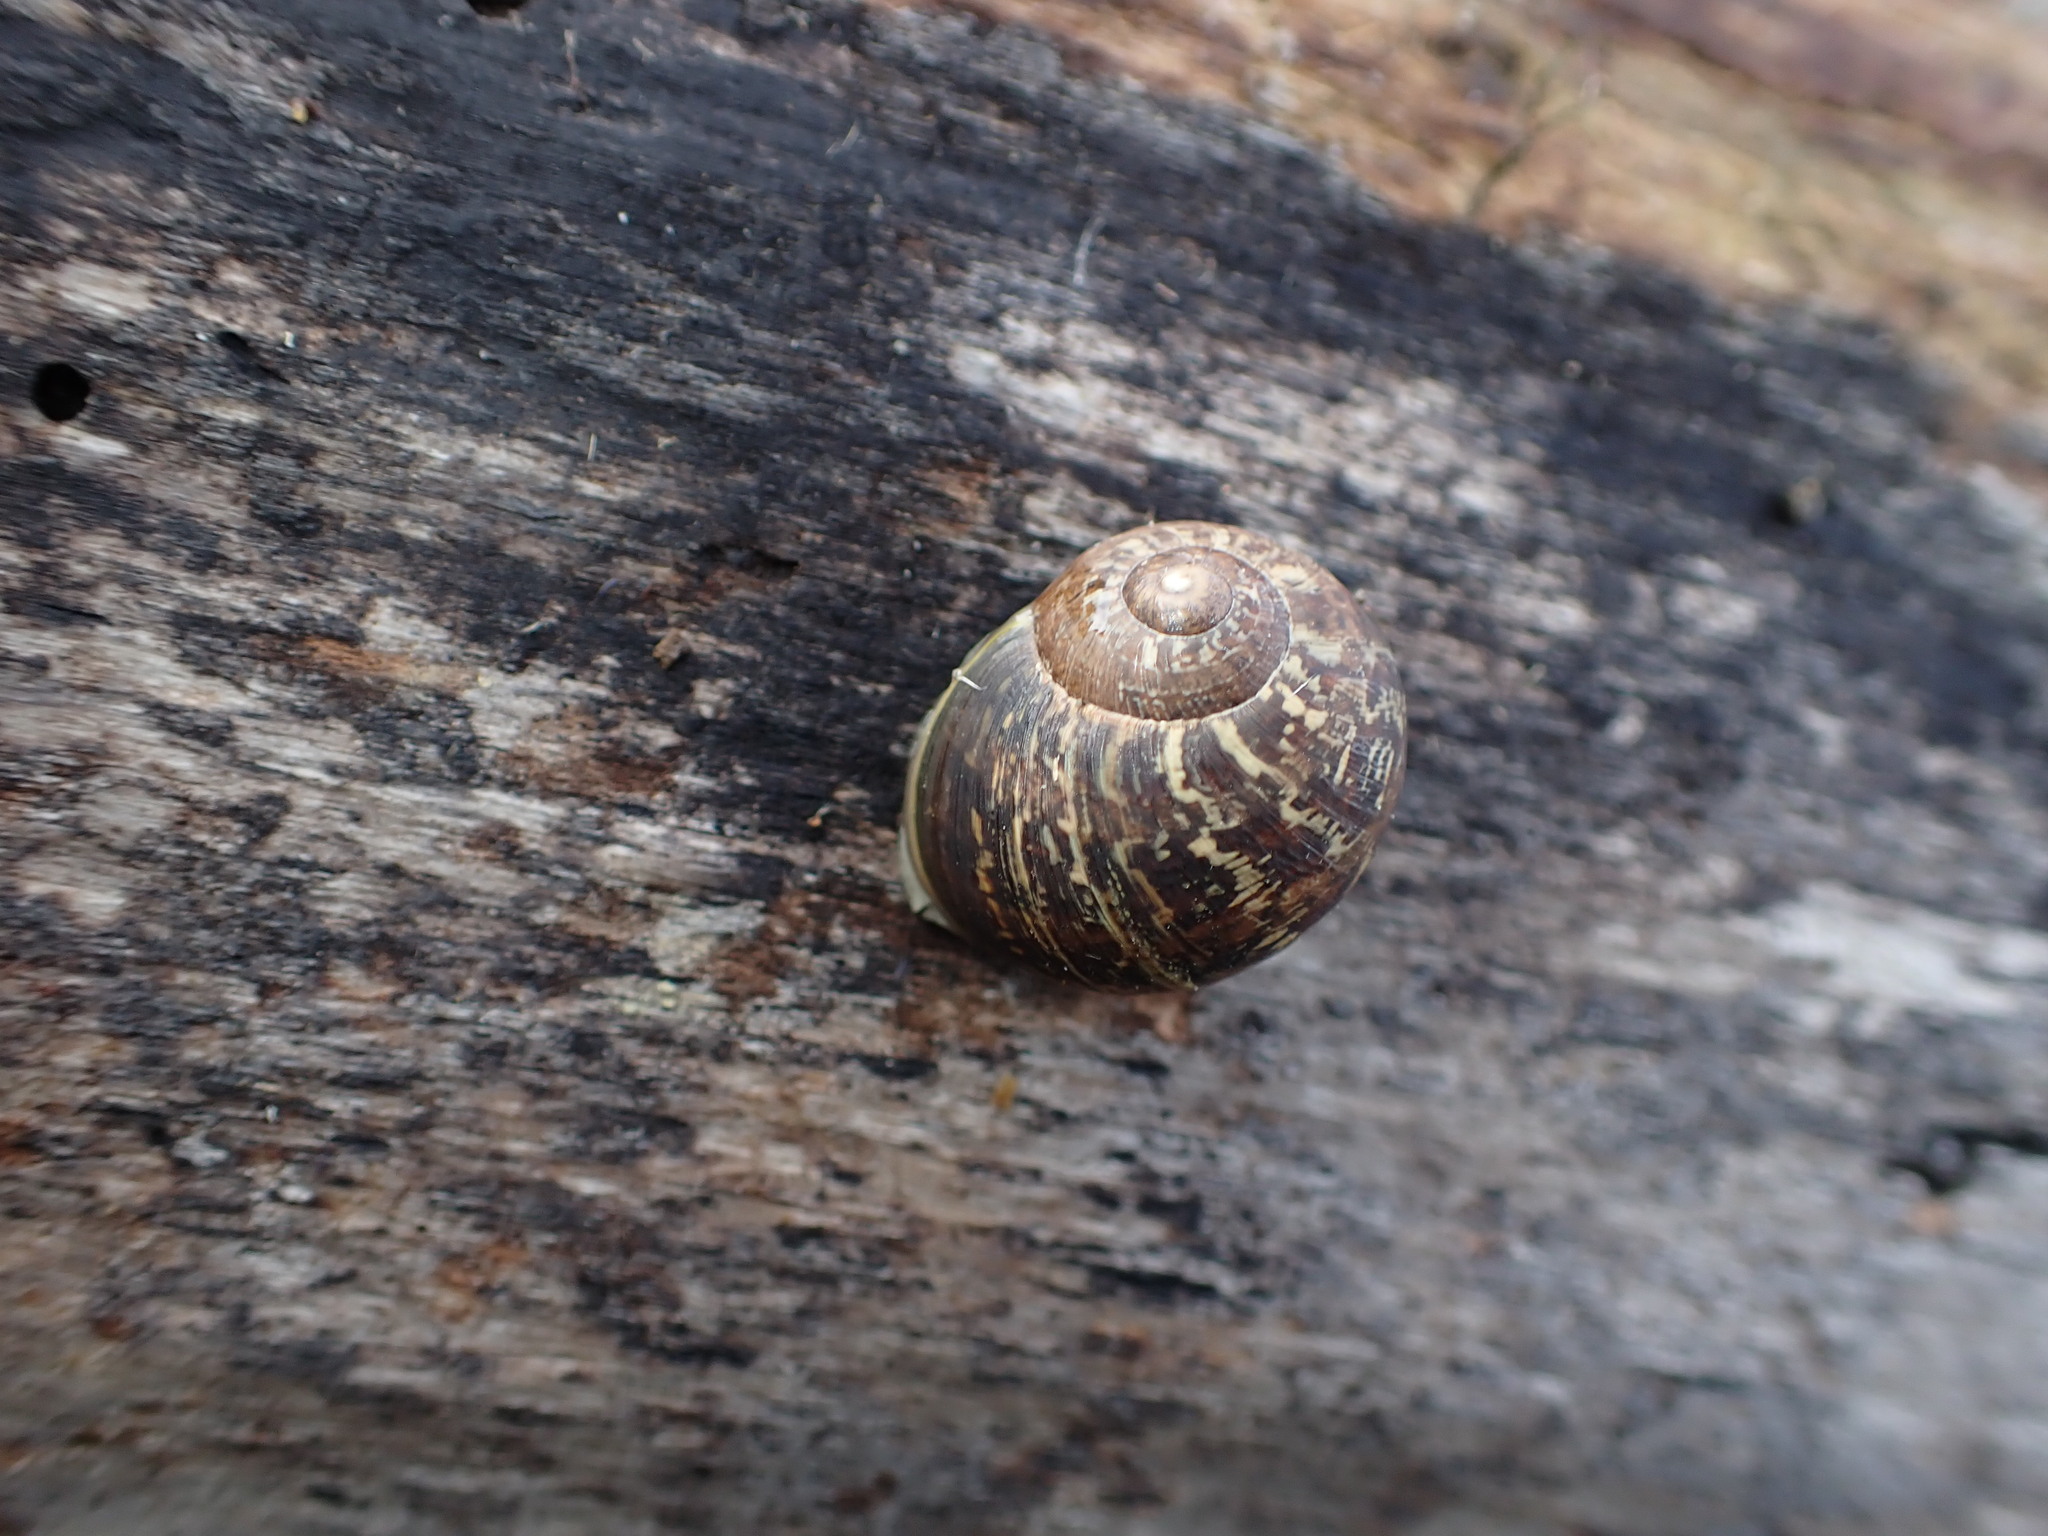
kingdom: Animalia
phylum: Mollusca
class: Gastropoda
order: Stylommatophora
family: Helicidae
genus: Cornu
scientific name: Cornu aspersum
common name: Brown garden snail
